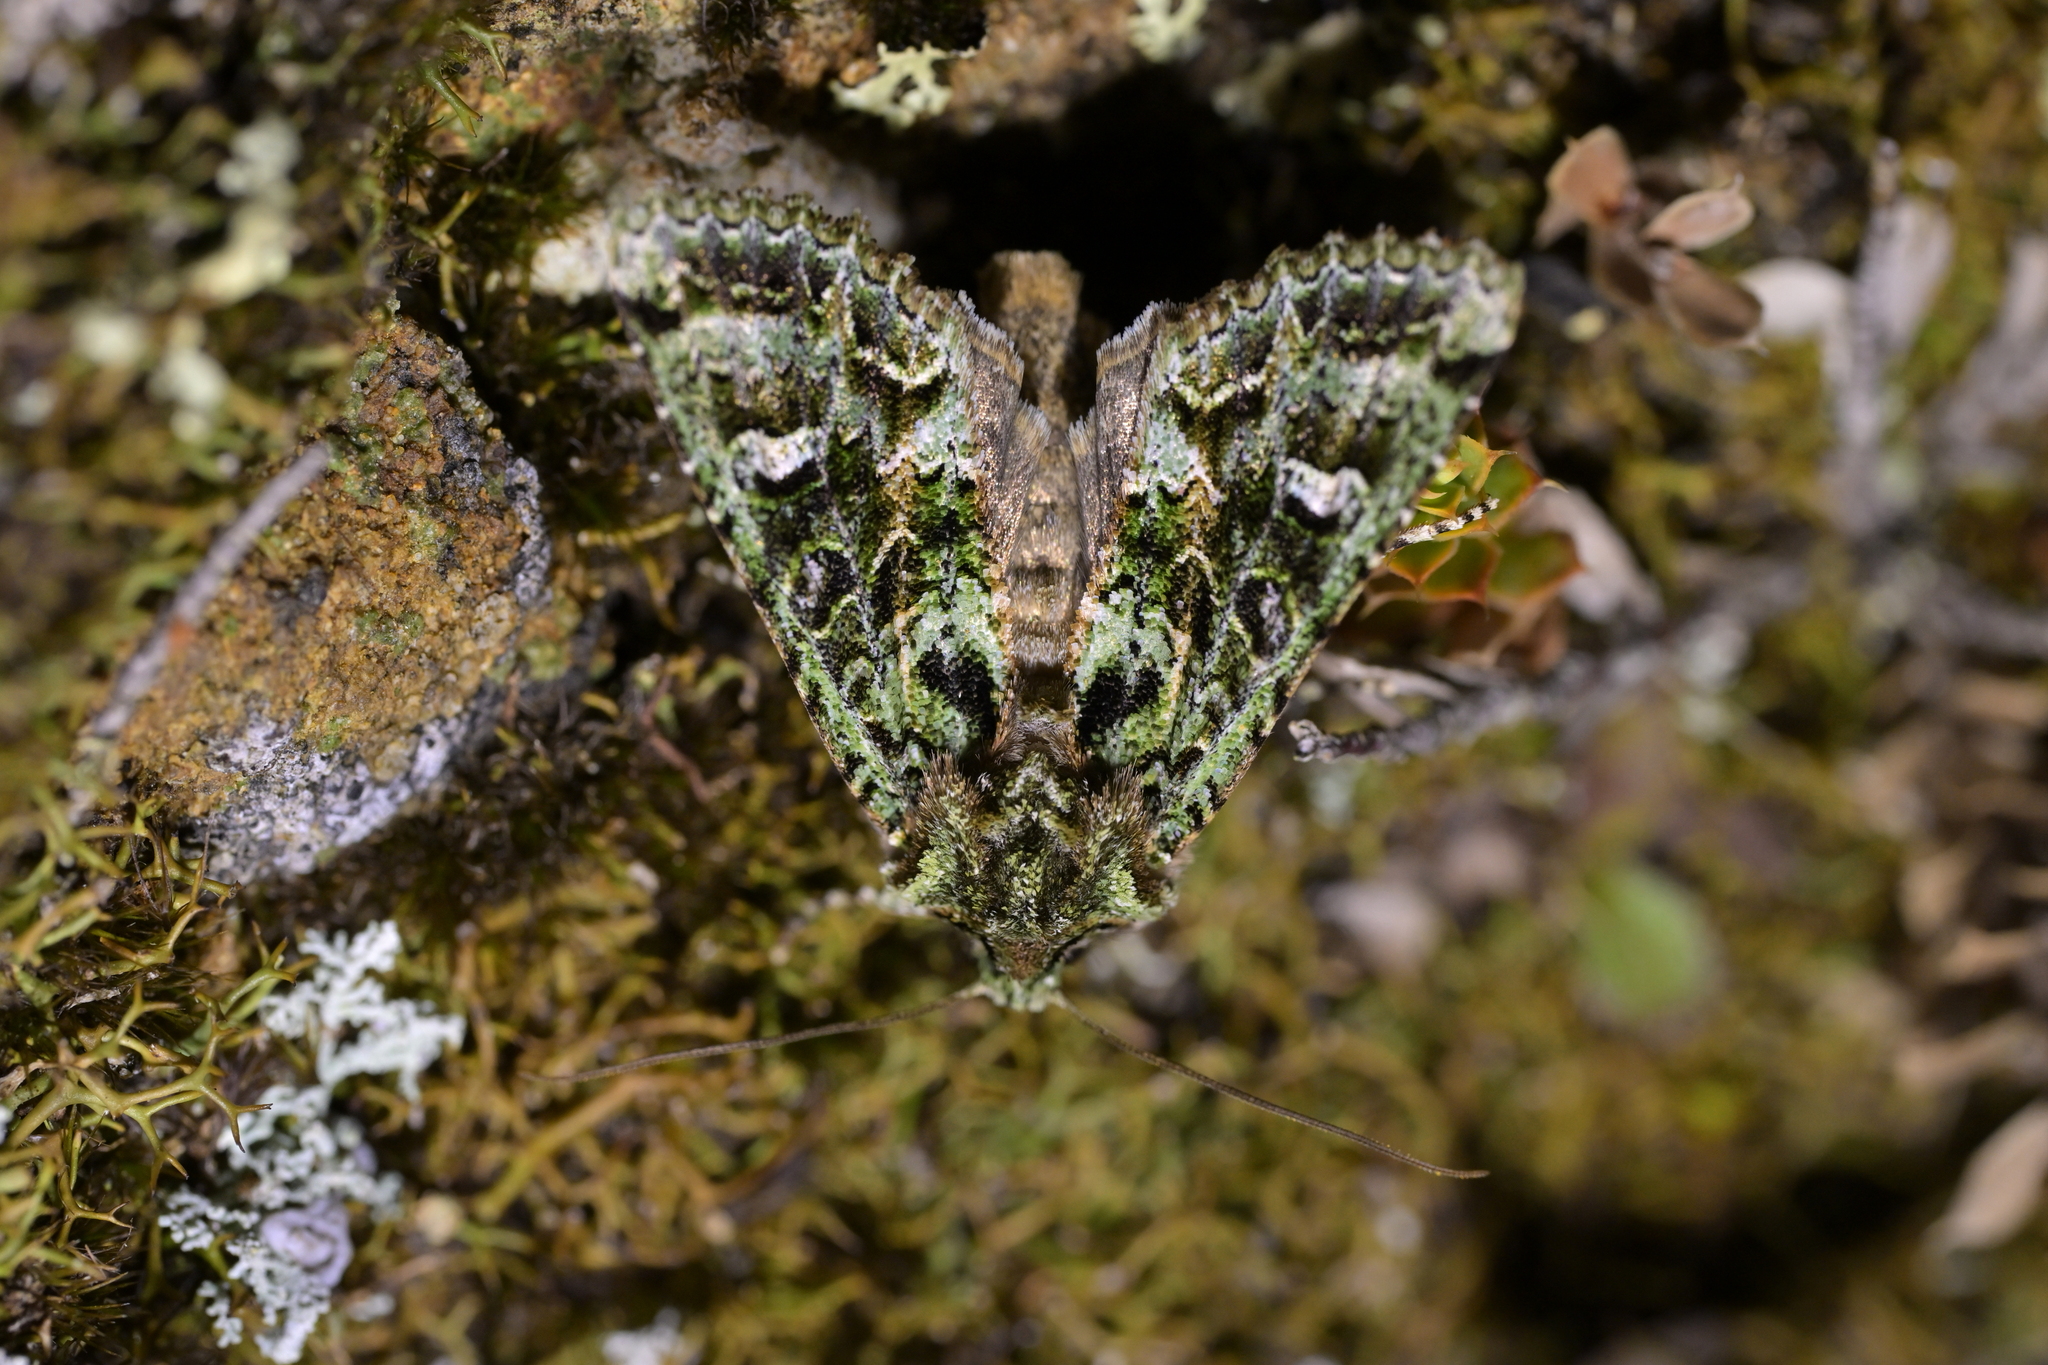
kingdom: Animalia
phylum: Arthropoda
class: Insecta
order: Lepidoptera
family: Noctuidae
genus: Ichneutica
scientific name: Ichneutica
